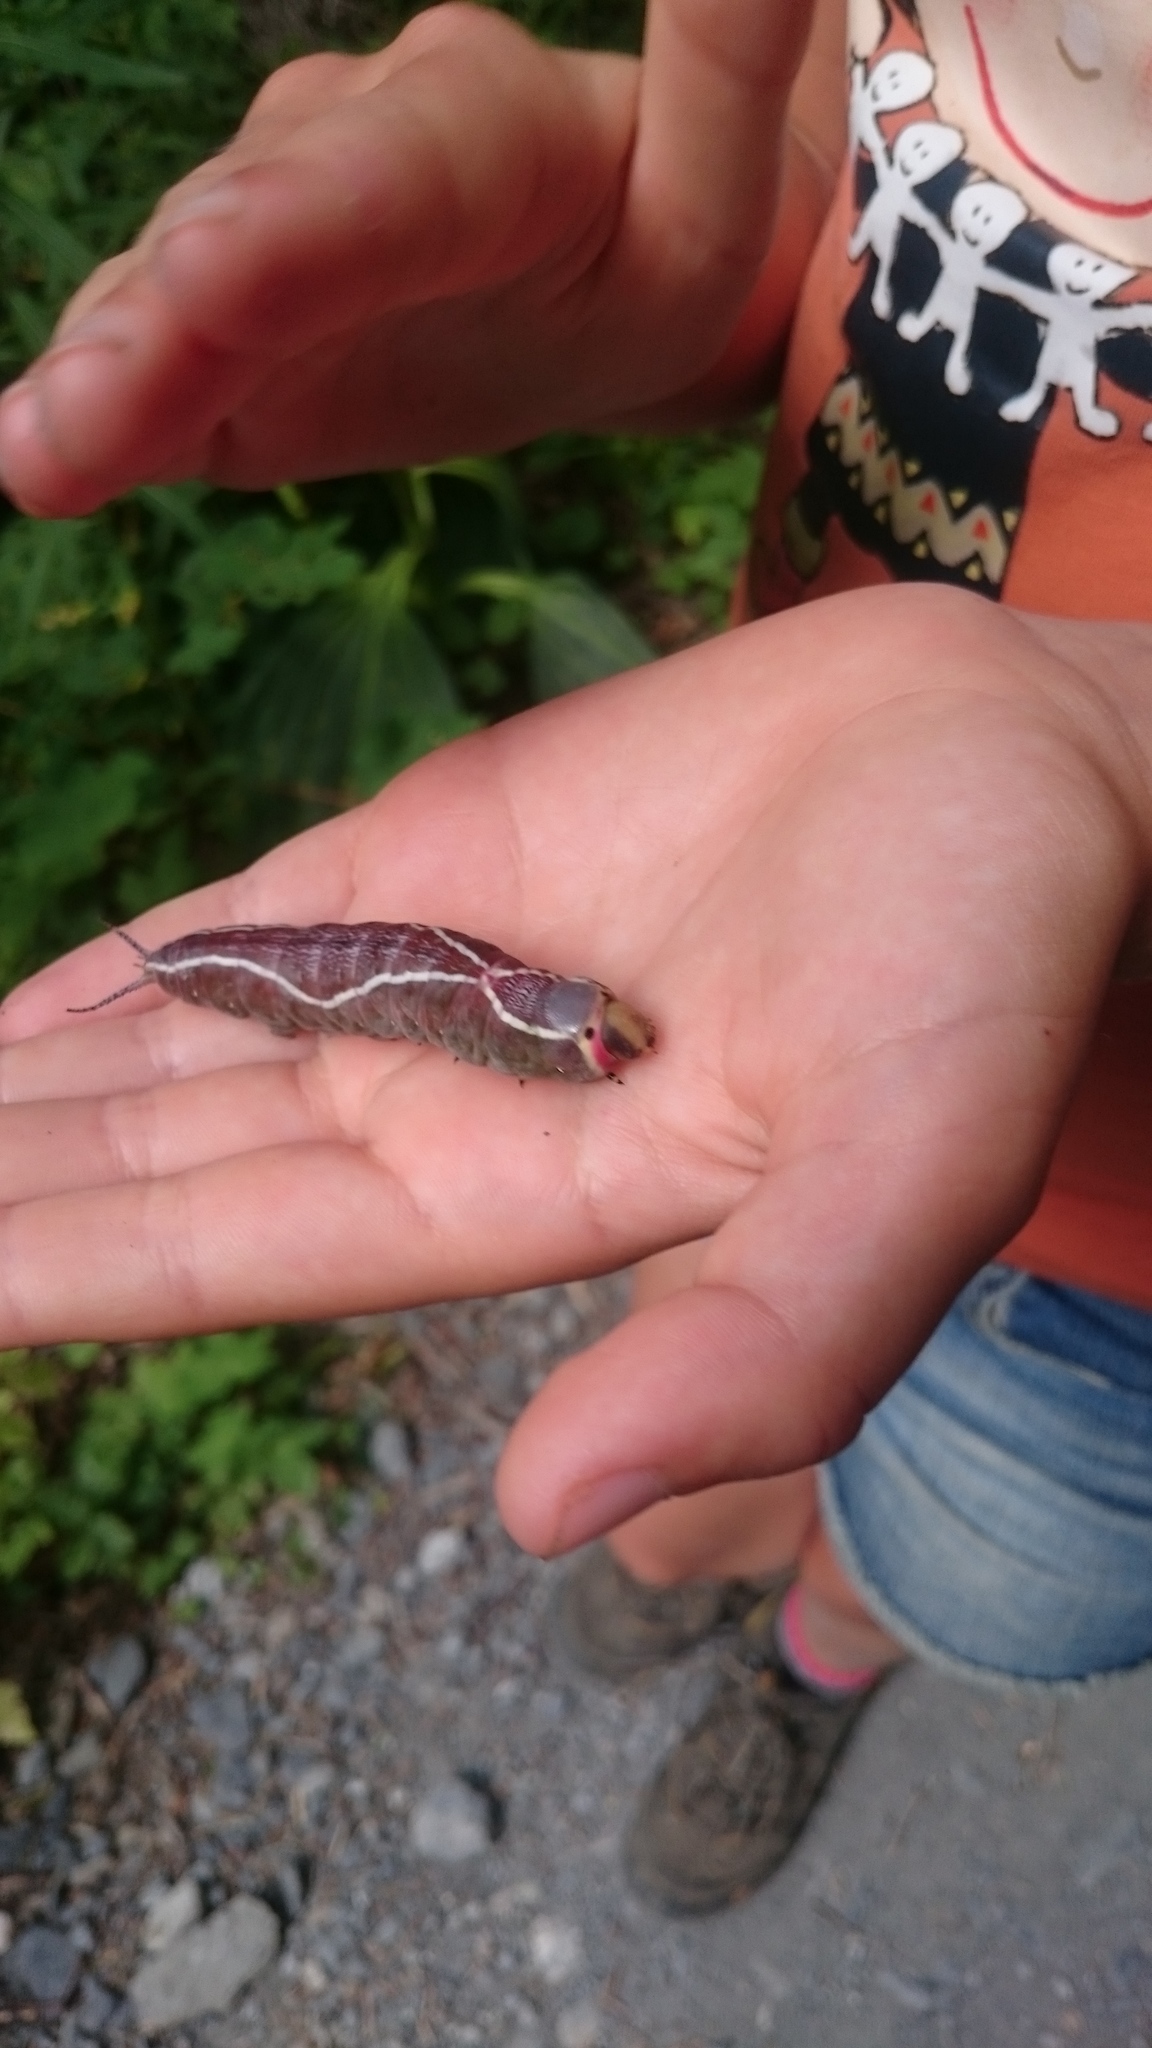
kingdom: Animalia
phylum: Arthropoda
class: Insecta
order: Lepidoptera
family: Notodontidae
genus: Cerura
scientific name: Cerura vinula
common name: Puss moth
